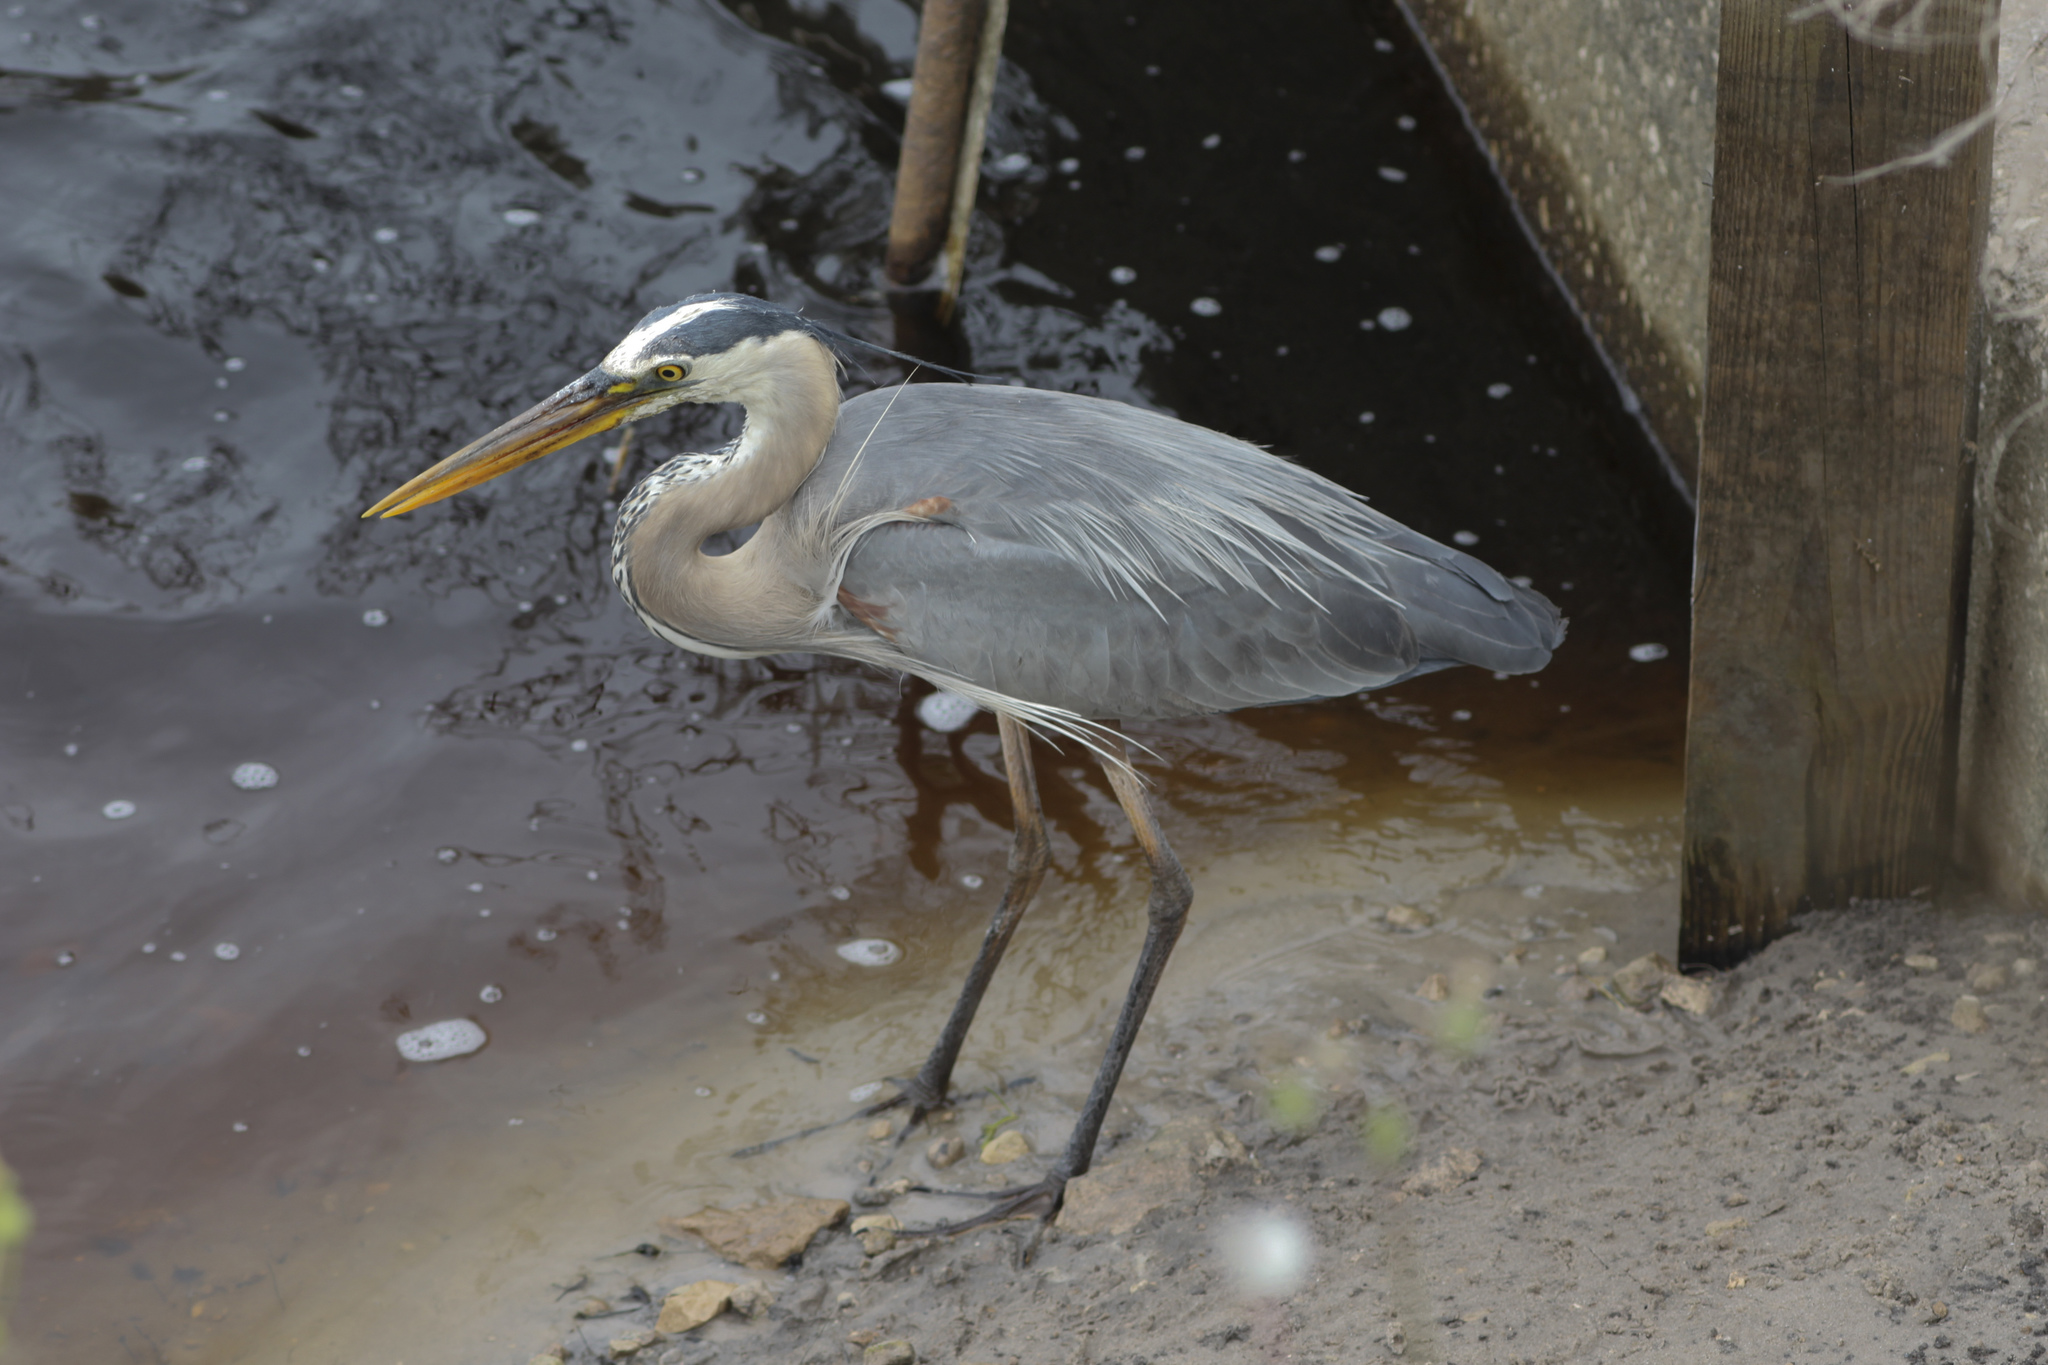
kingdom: Animalia
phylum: Chordata
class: Aves
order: Pelecaniformes
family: Ardeidae
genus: Ardea
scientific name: Ardea herodias
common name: Great blue heron
